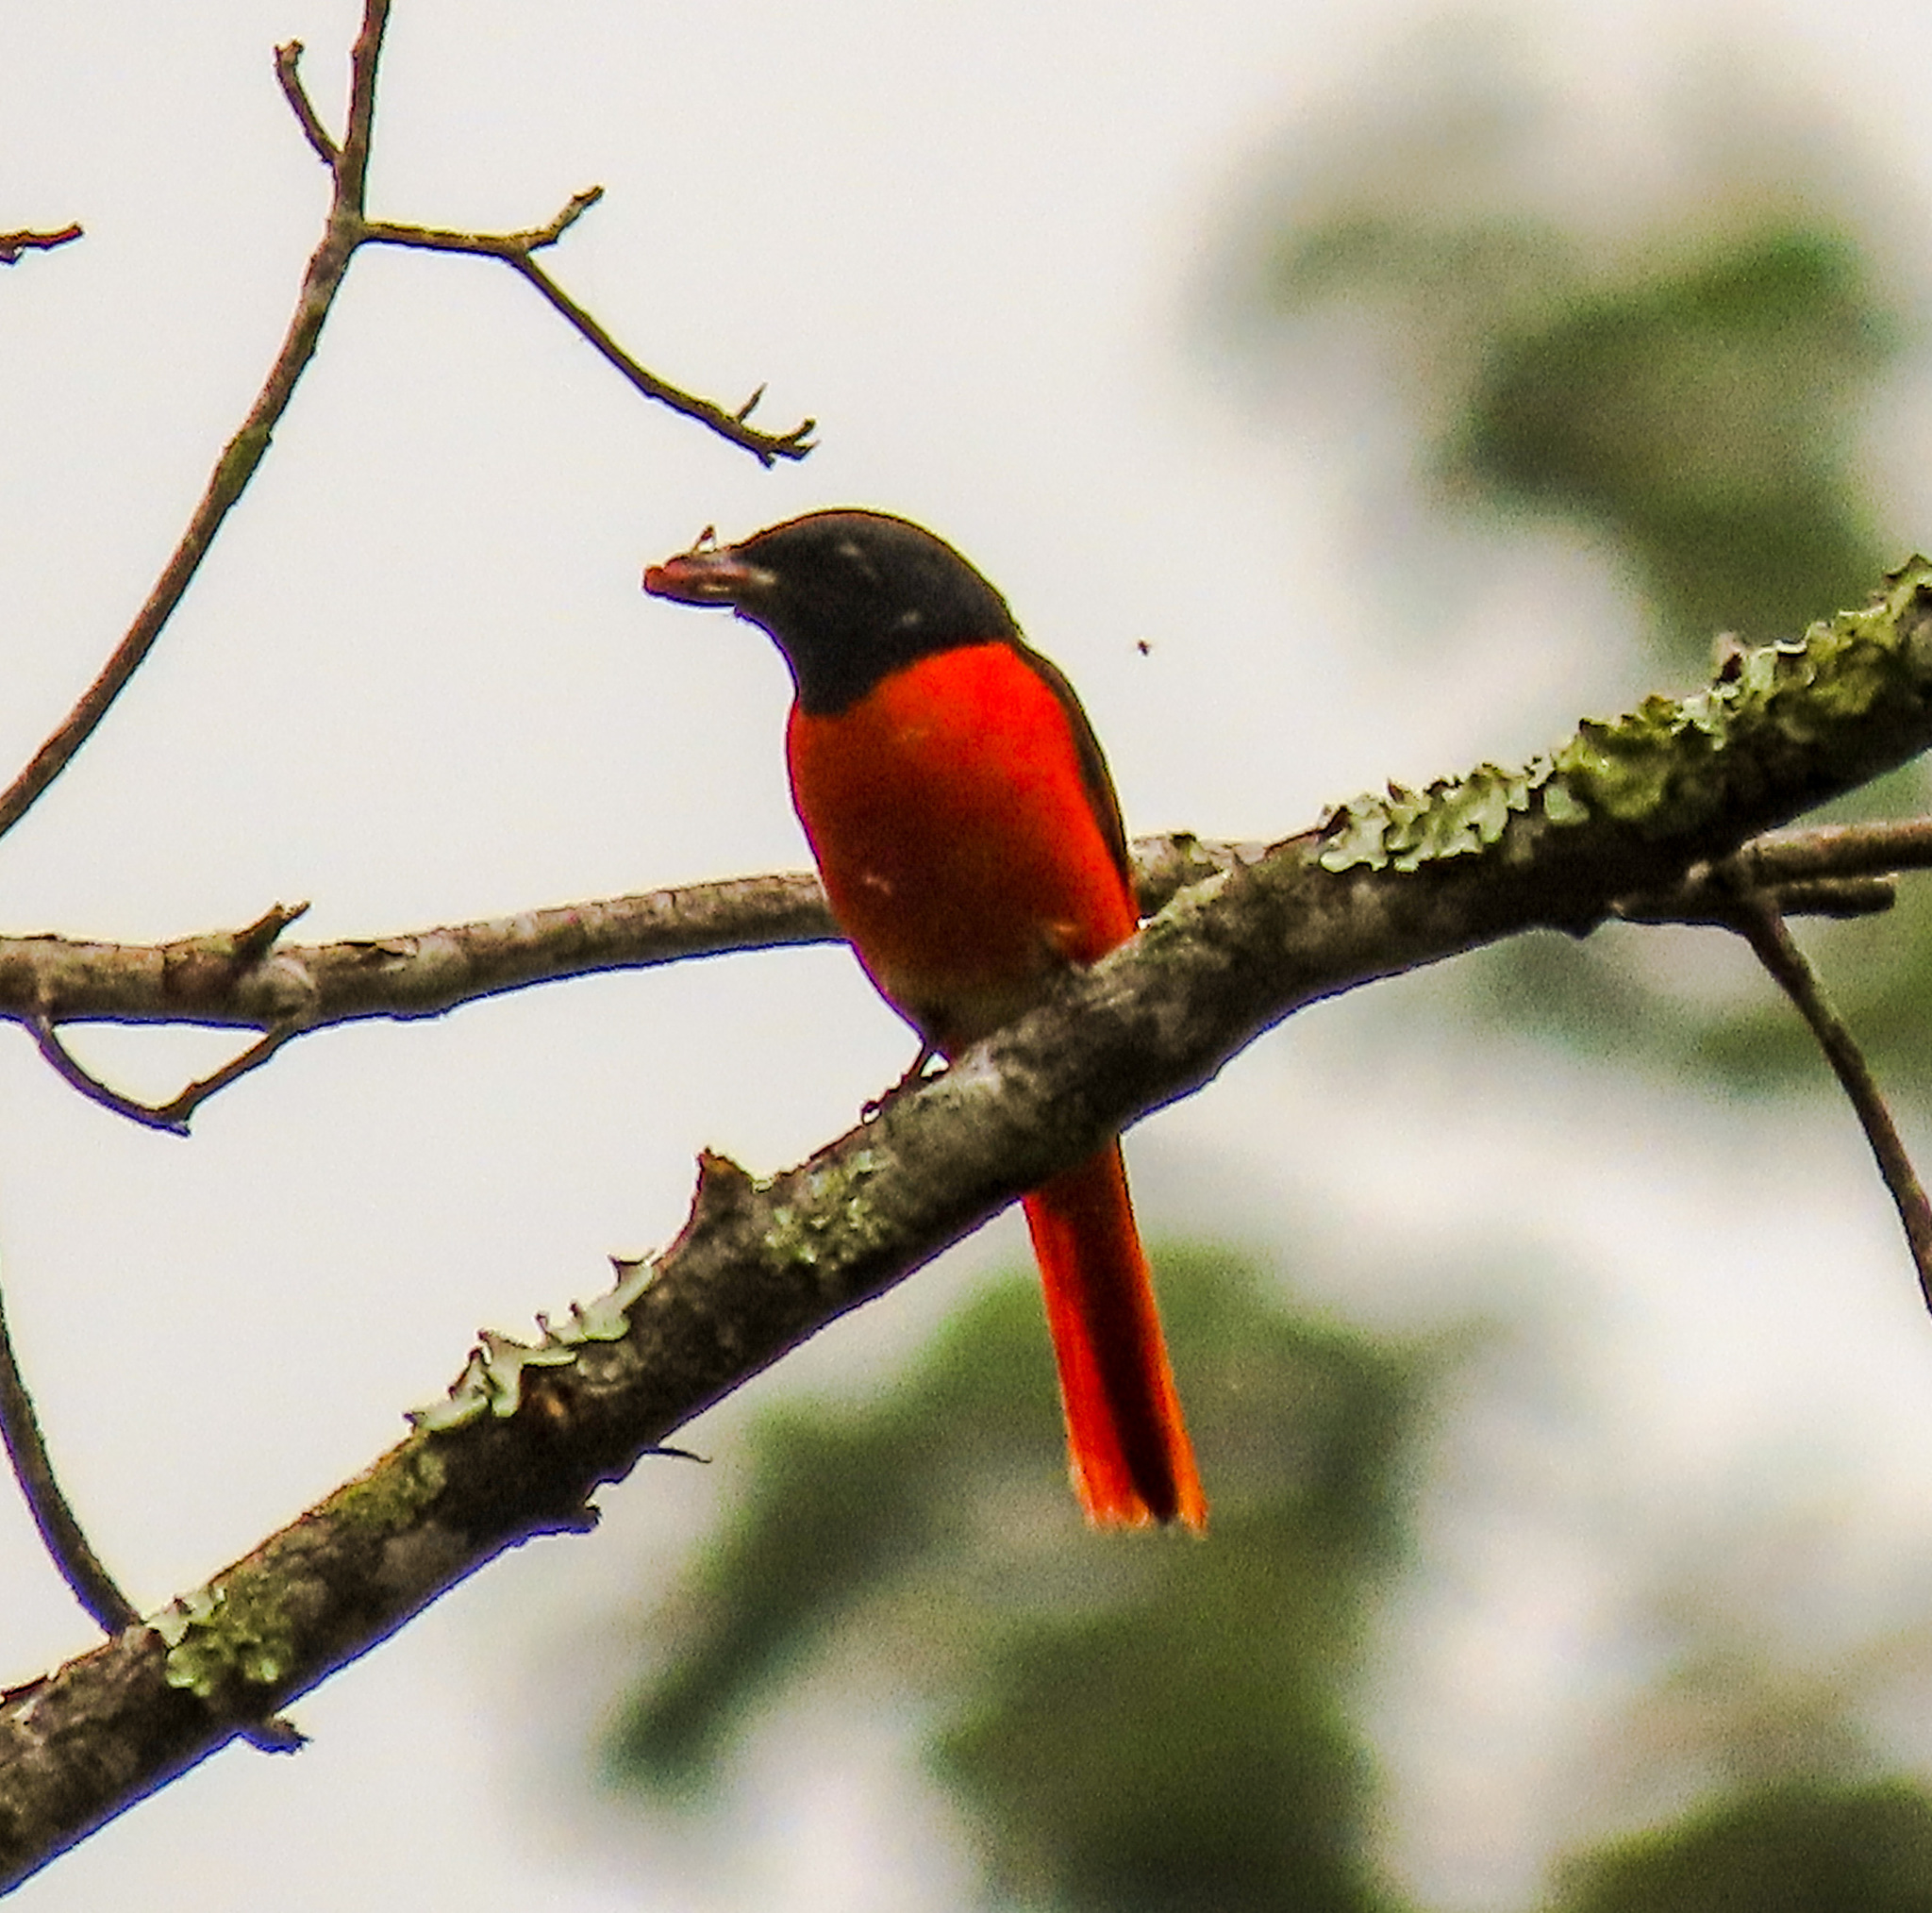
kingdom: Animalia
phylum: Chordata
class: Aves
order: Passeriformes
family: Campephagidae
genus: Pericrocotus
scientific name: Pericrocotus speciosus
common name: Scarlet minivet
